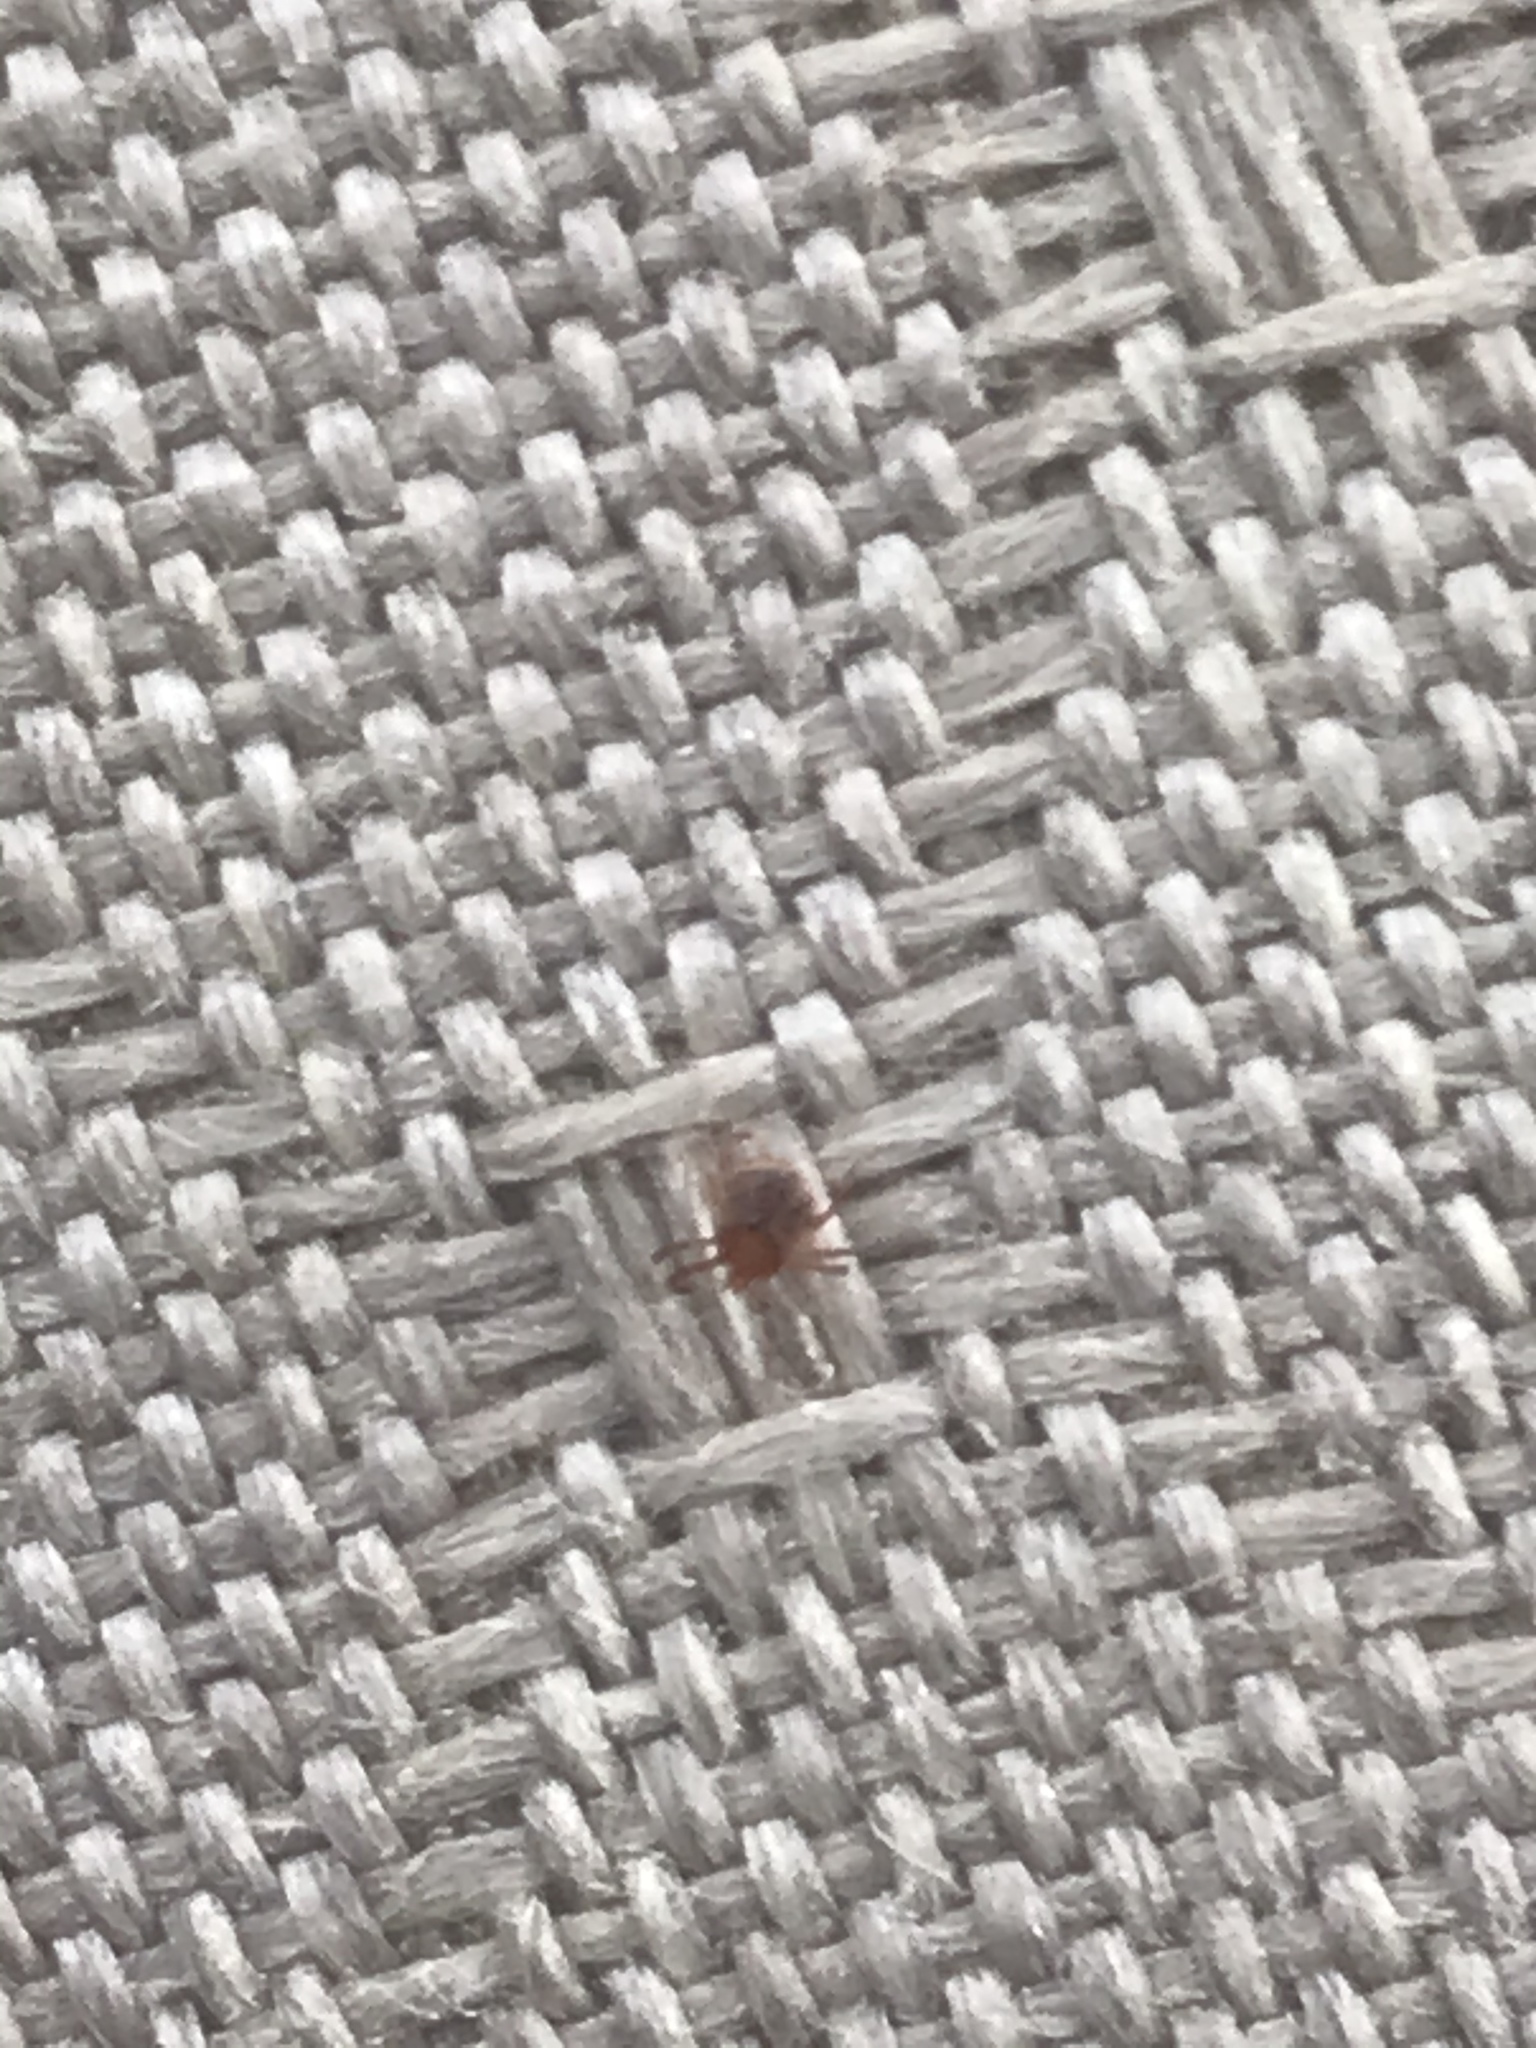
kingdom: Animalia
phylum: Arthropoda
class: Arachnida
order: Ixodida
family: Ixodidae
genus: Amblyomma
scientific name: Amblyomma americanum
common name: Lone star tick
